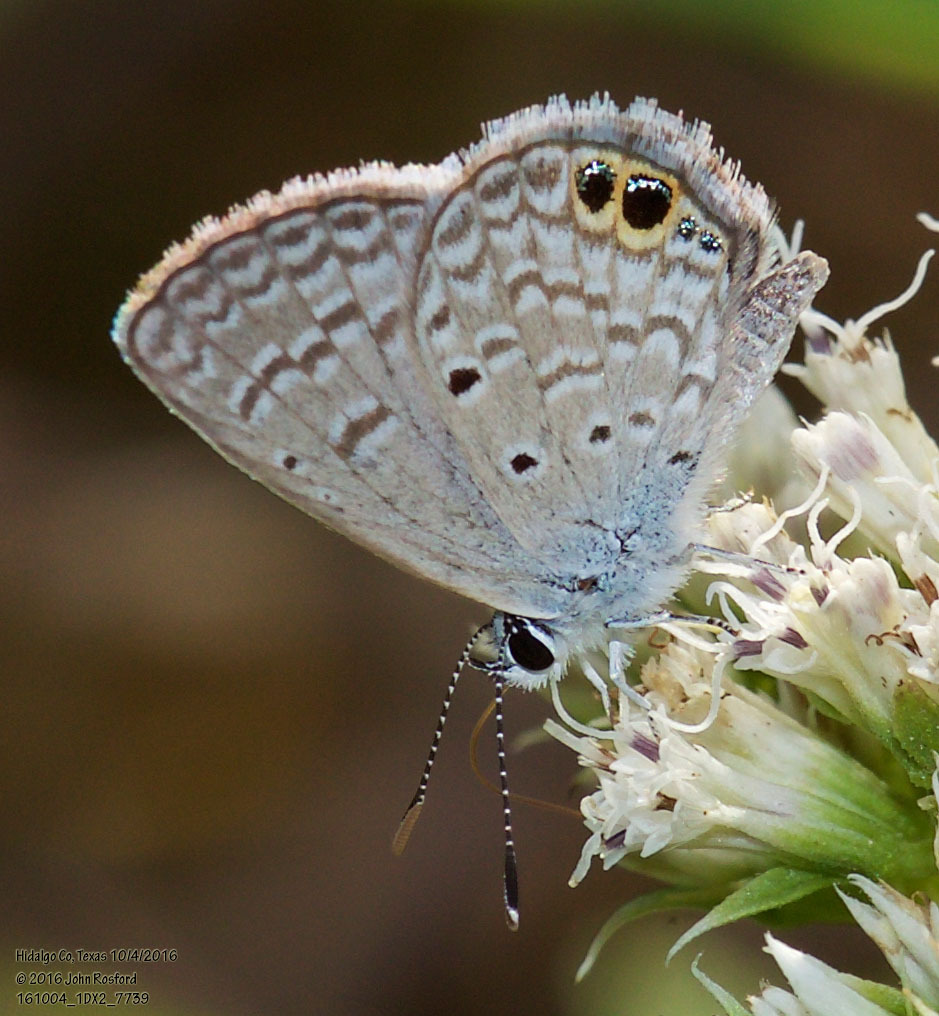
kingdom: Animalia
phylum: Arthropoda
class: Insecta
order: Lepidoptera
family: Lycaenidae
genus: Hemiargus
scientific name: Hemiargus ceraunus
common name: Ceraunus blue
